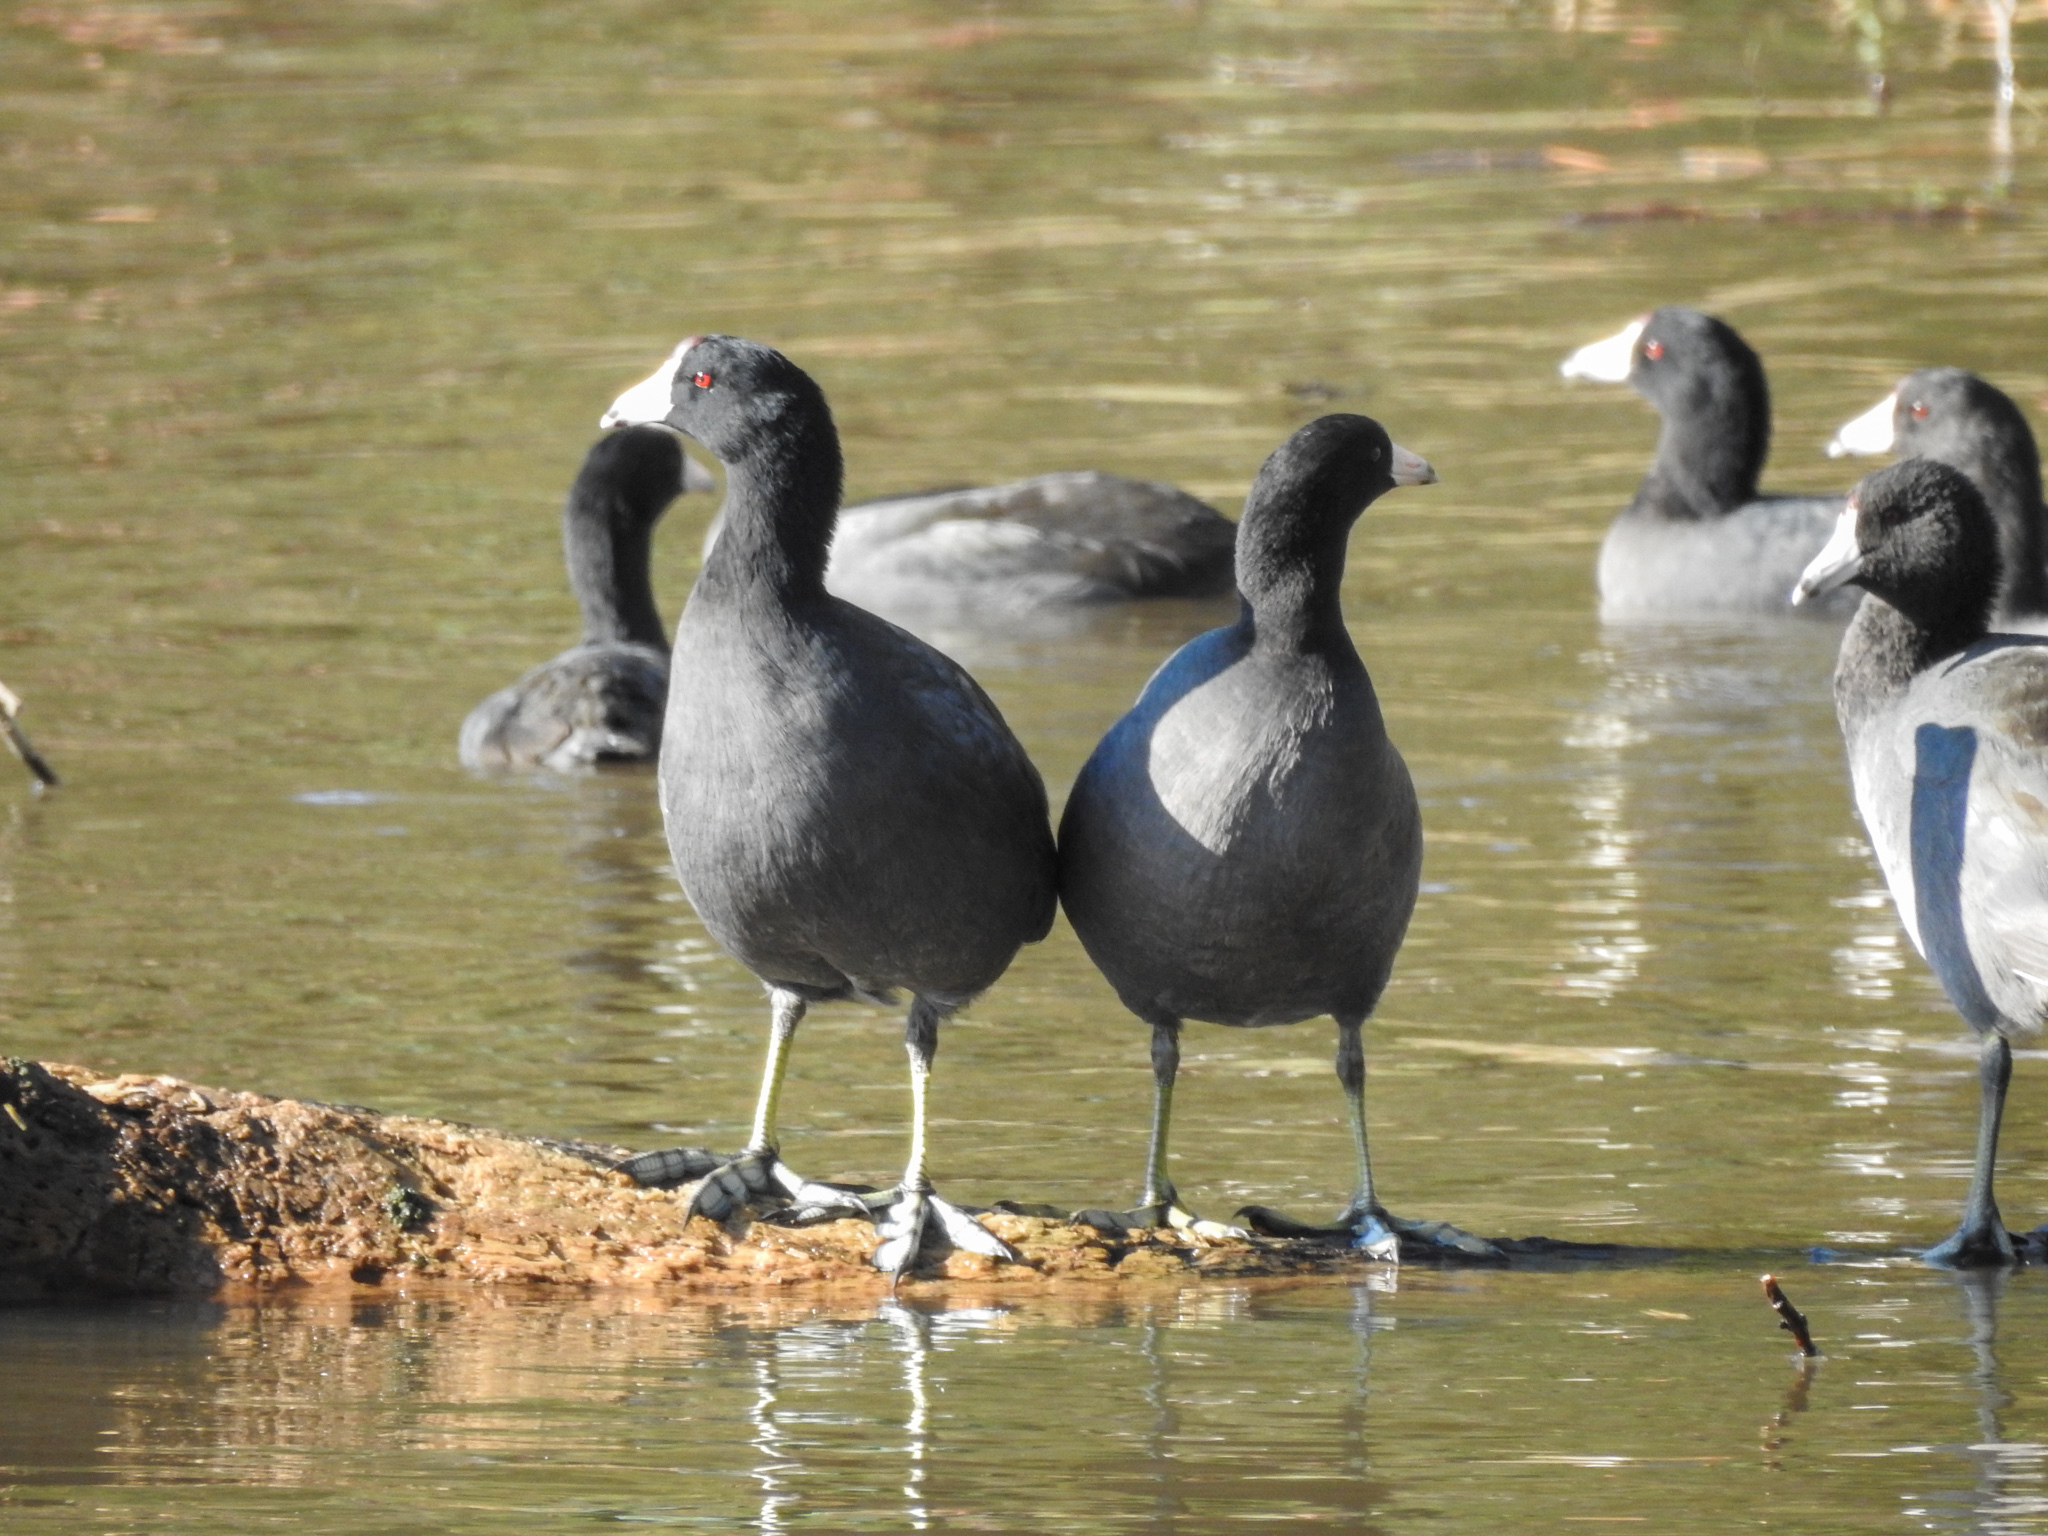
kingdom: Animalia
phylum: Chordata
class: Aves
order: Gruiformes
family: Rallidae
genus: Fulica
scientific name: Fulica americana
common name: American coot
